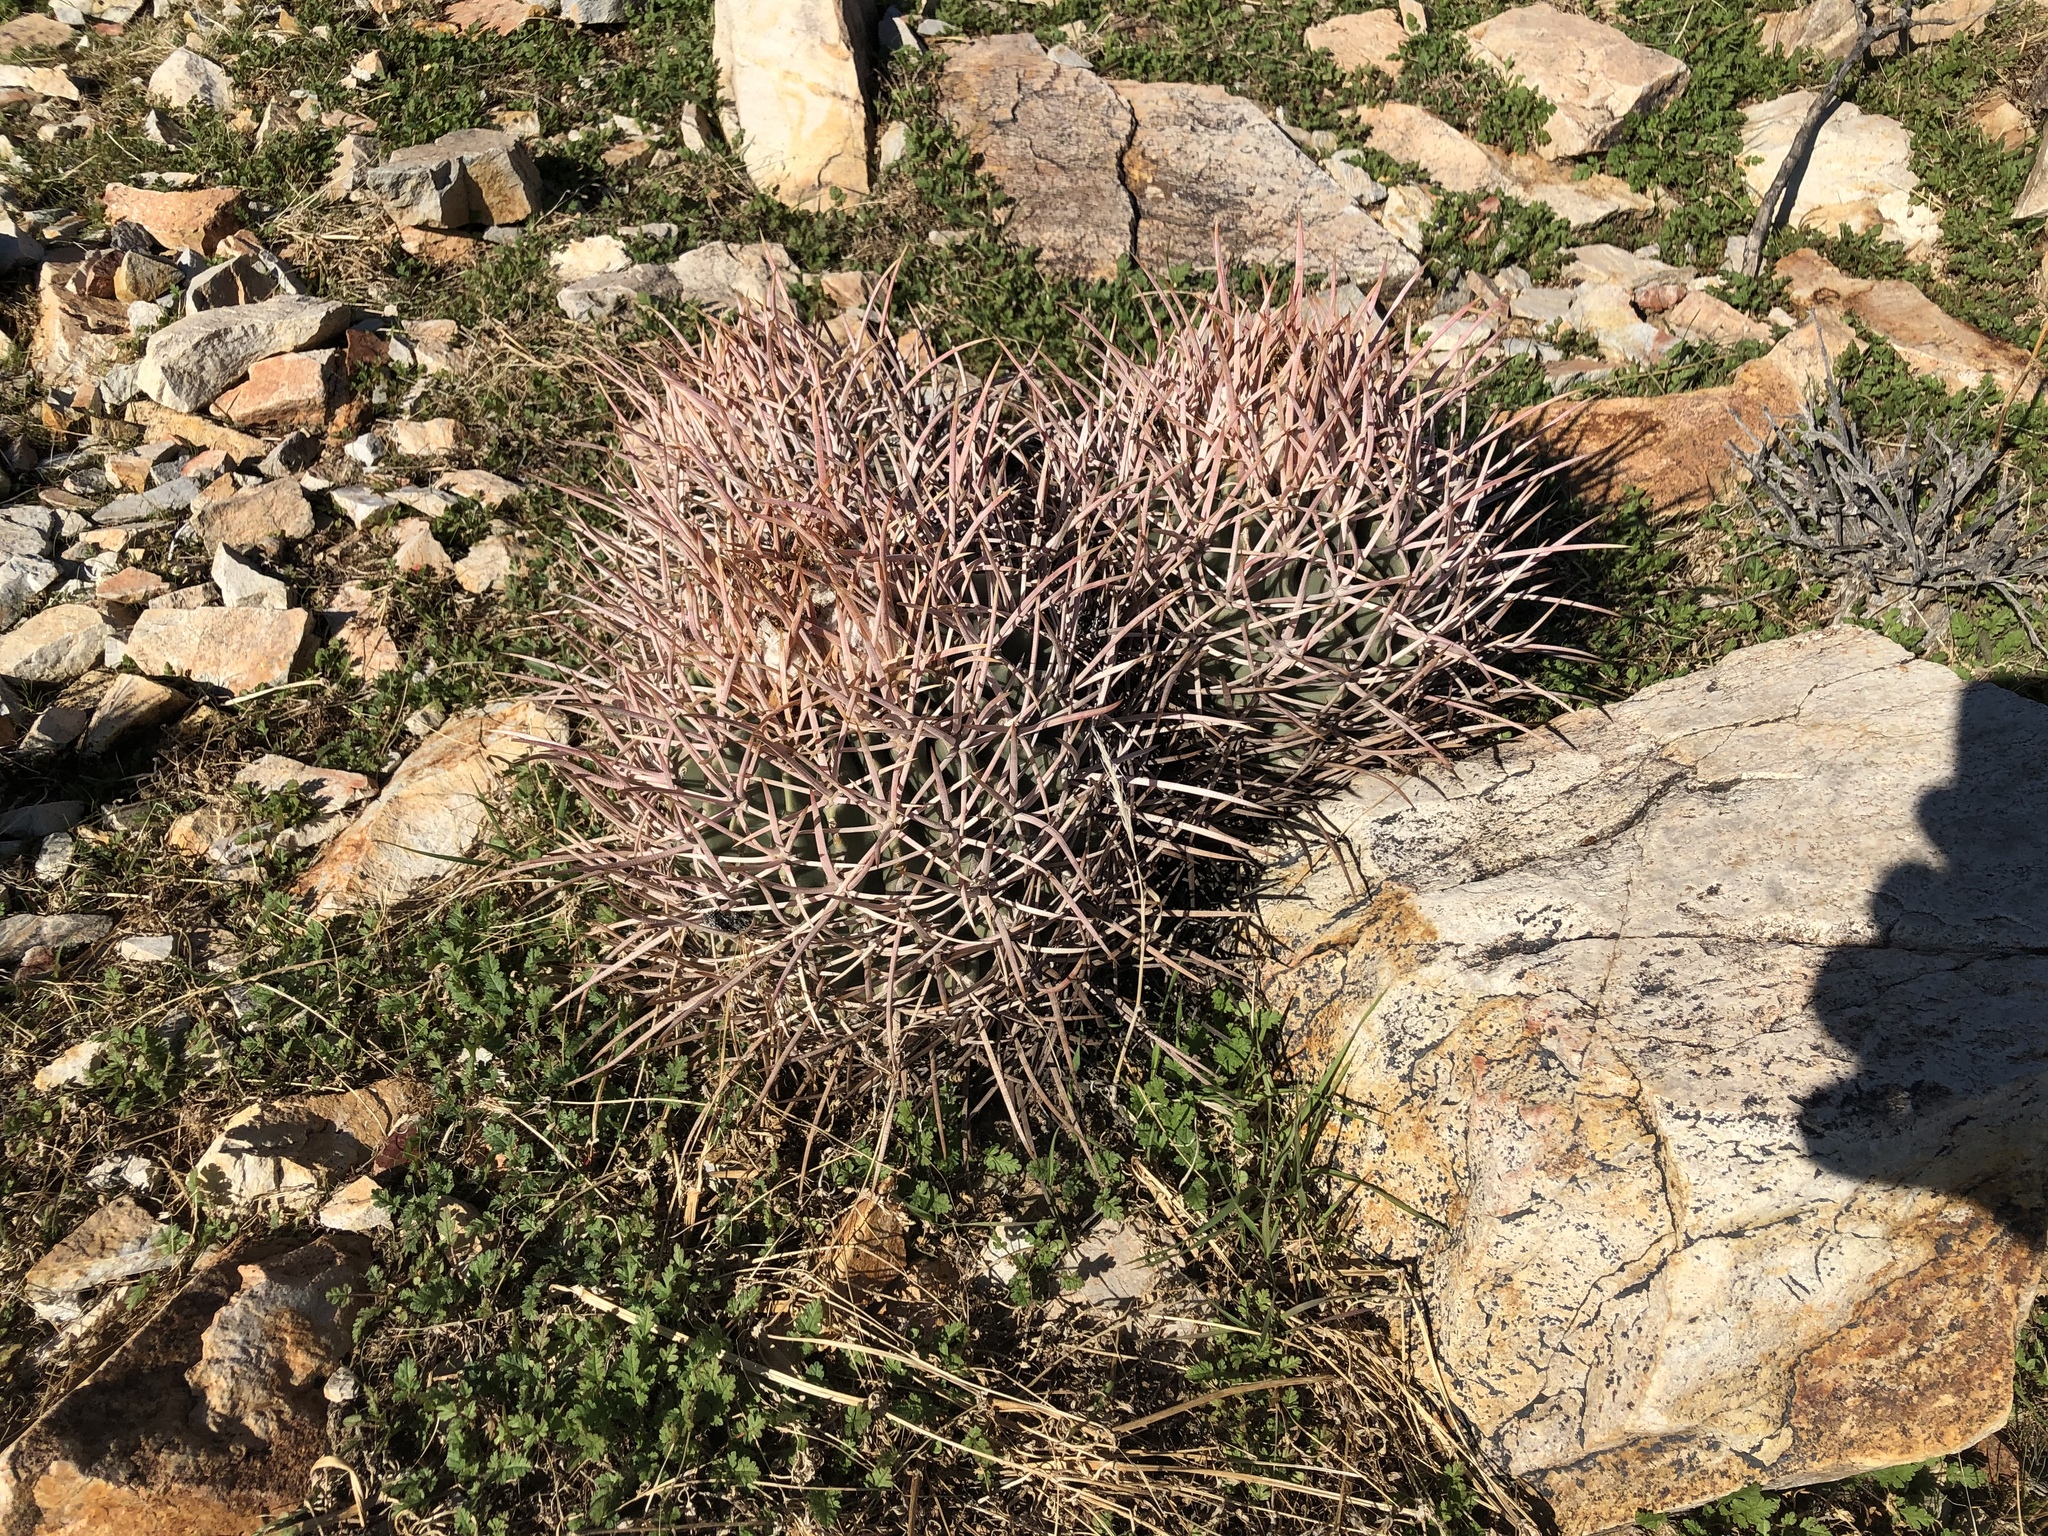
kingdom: Plantae
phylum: Tracheophyta
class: Magnoliopsida
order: Caryophyllales
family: Cactaceae
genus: Echinocactus
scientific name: Echinocactus polycephalus
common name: Cottontop cactus
